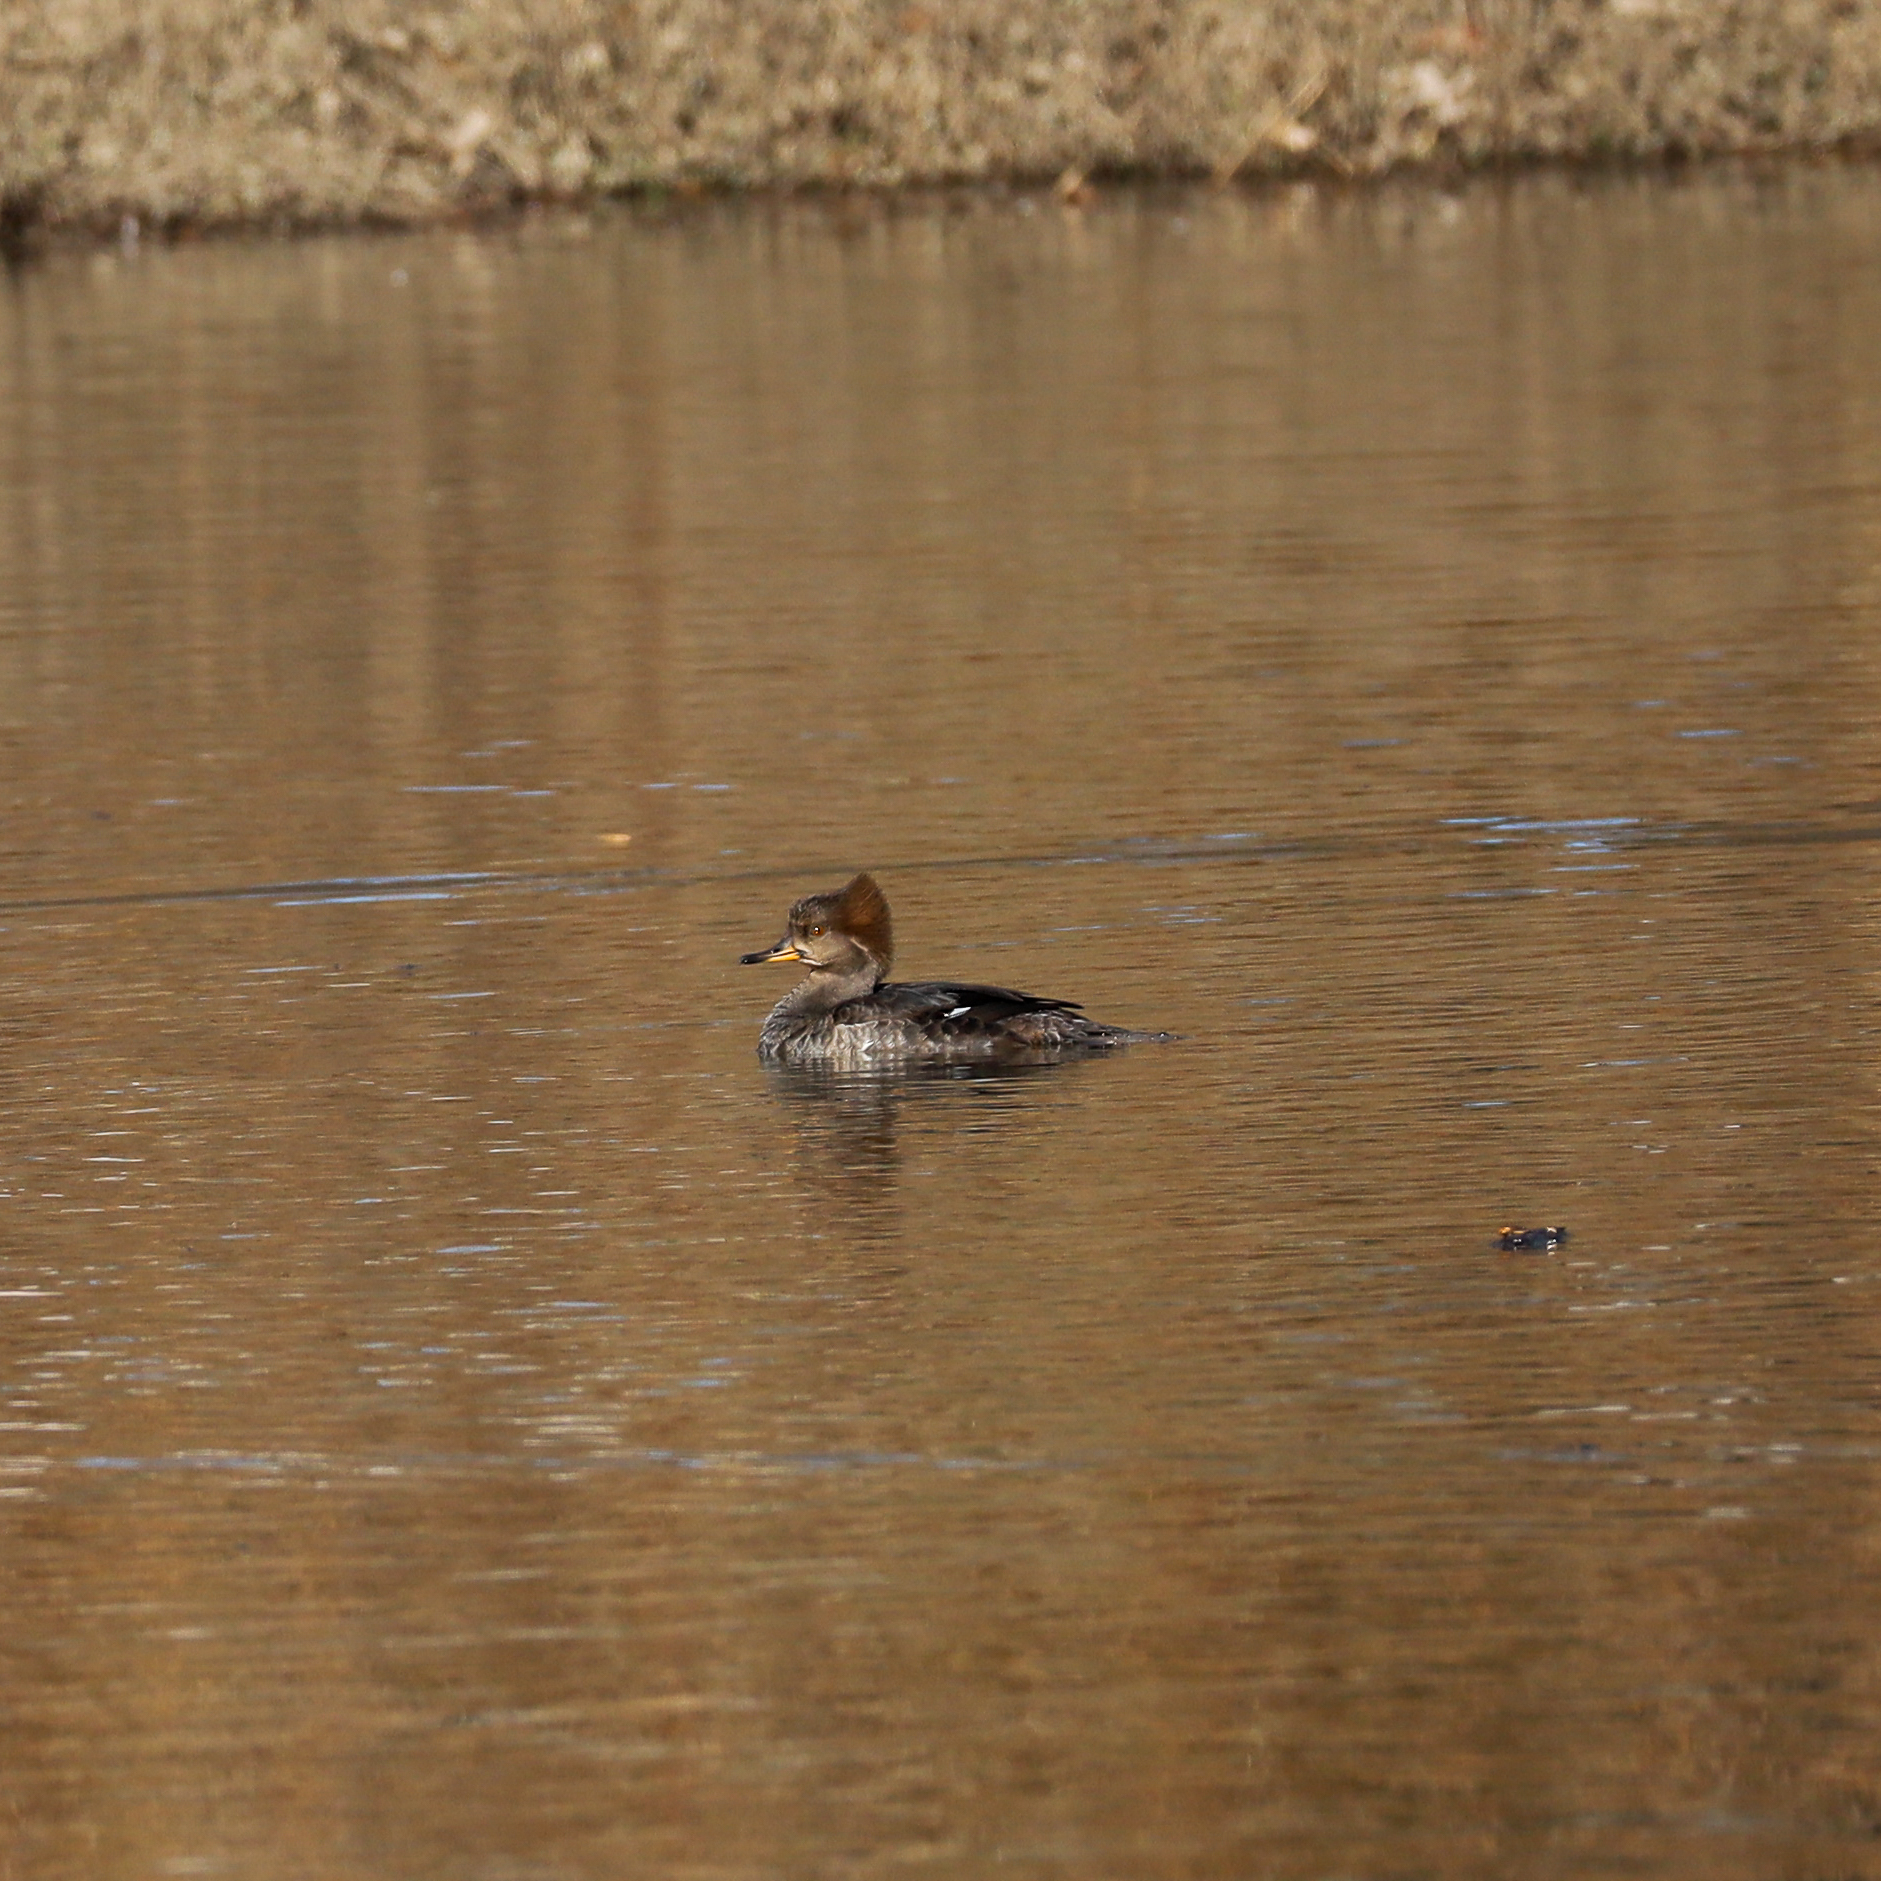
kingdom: Animalia
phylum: Chordata
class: Aves
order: Anseriformes
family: Anatidae
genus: Lophodytes
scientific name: Lophodytes cucullatus
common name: Hooded merganser
